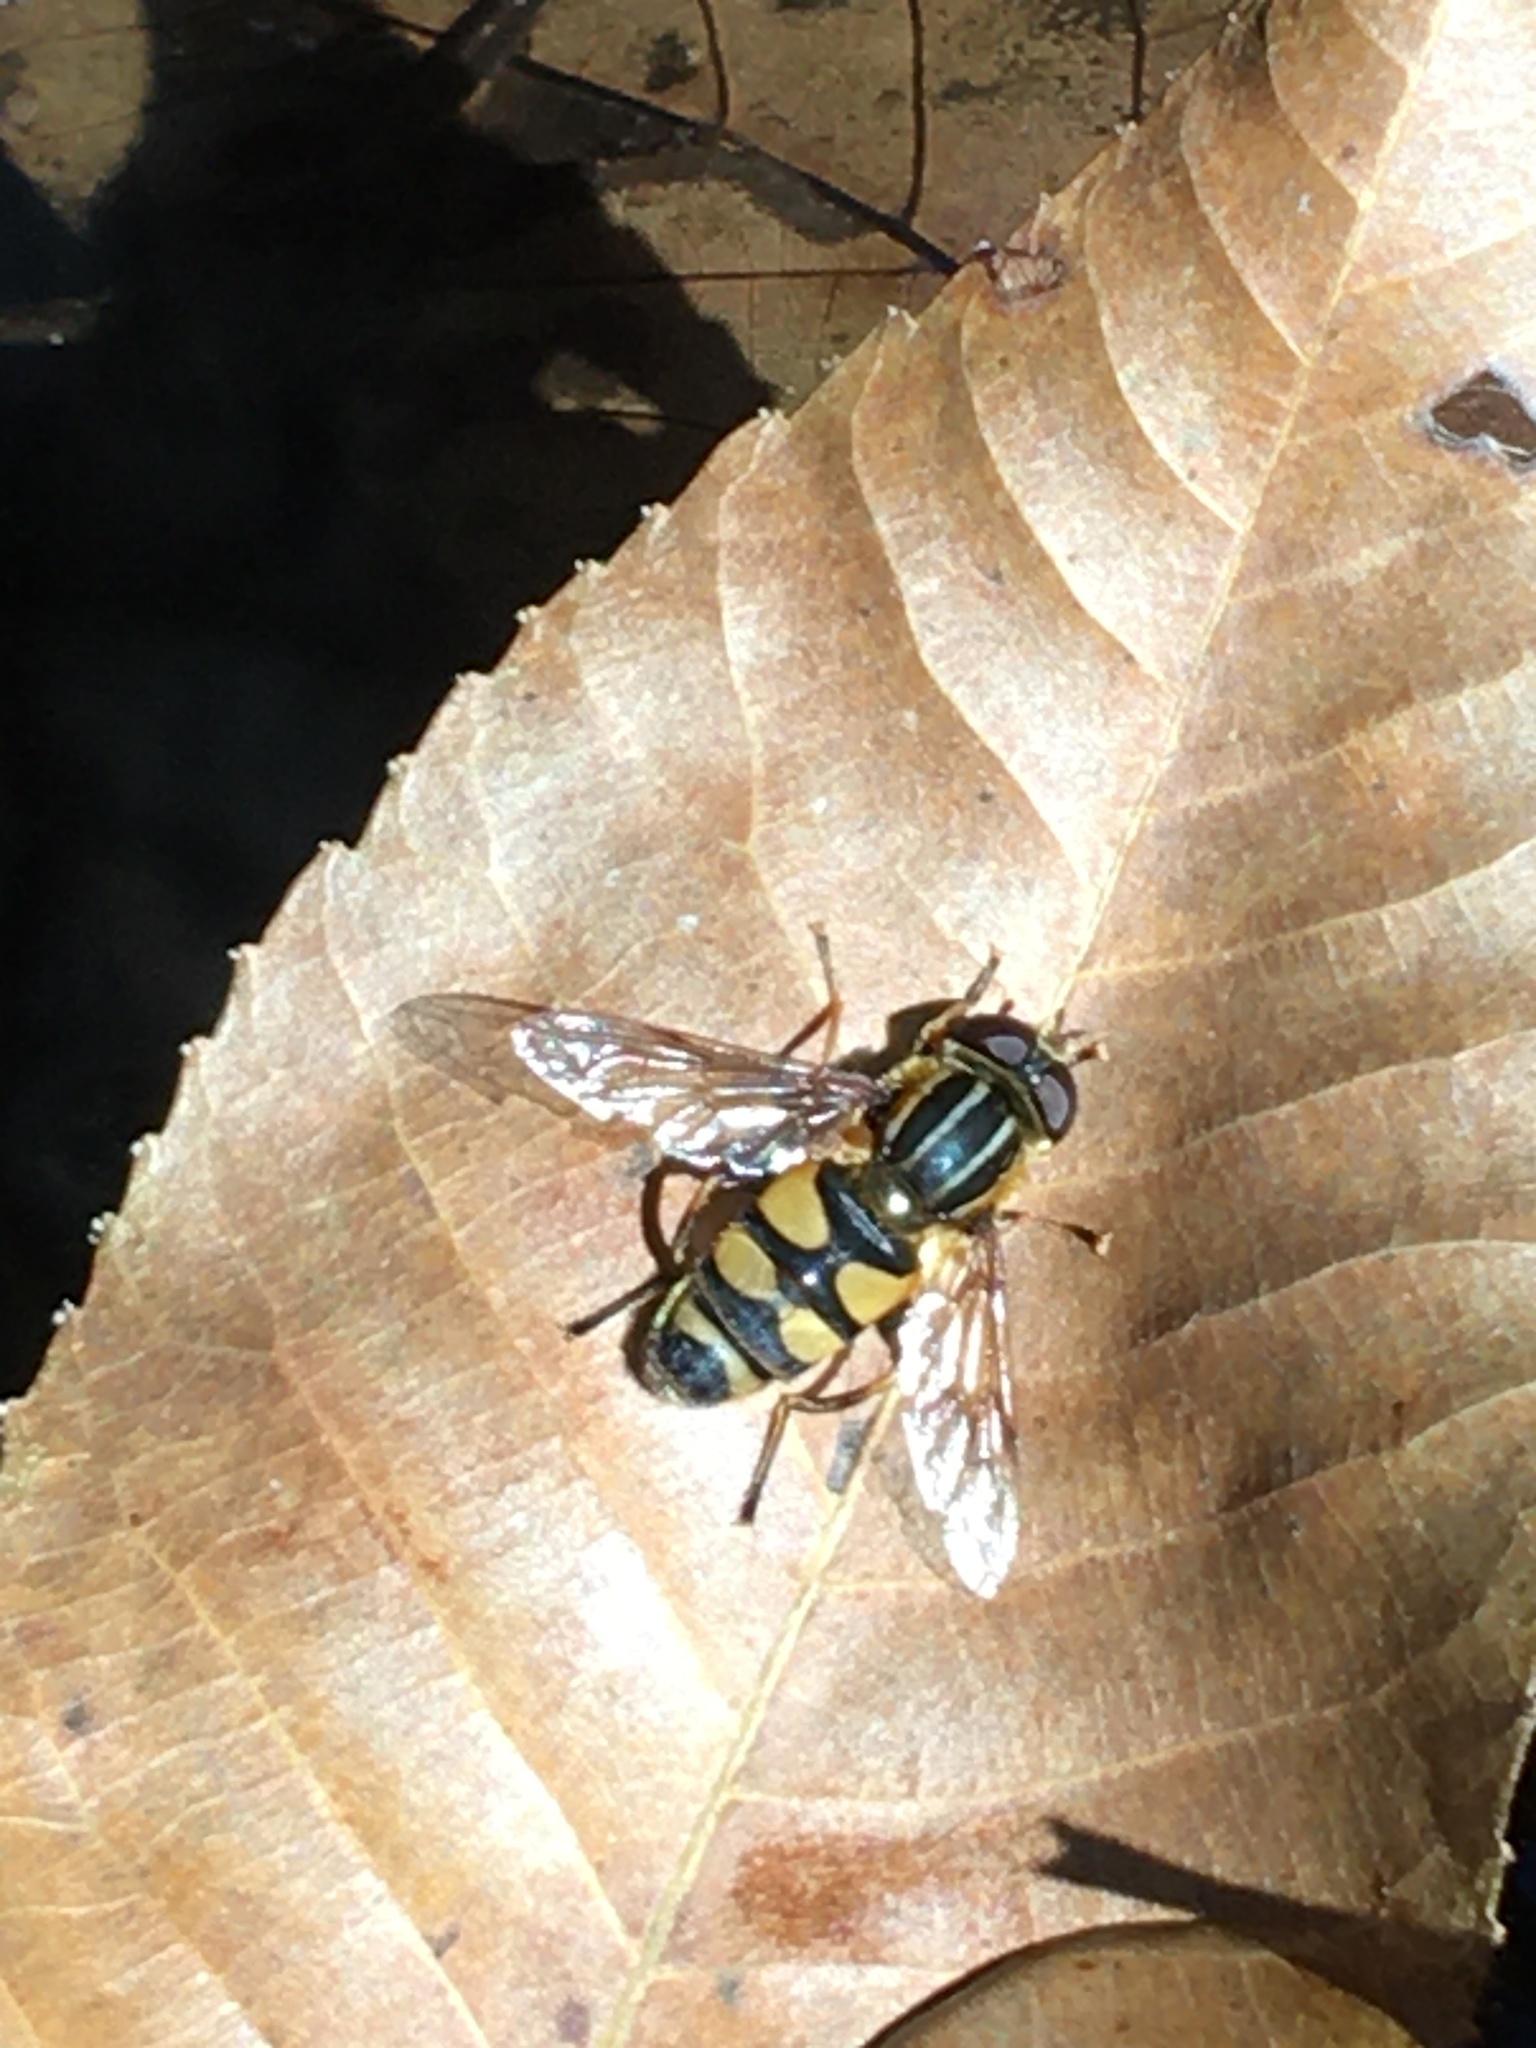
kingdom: Animalia
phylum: Arthropoda
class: Insecta
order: Diptera
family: Syrphidae
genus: Helophilus
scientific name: Helophilus fasciatus
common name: Narrow-headed marsh fly
